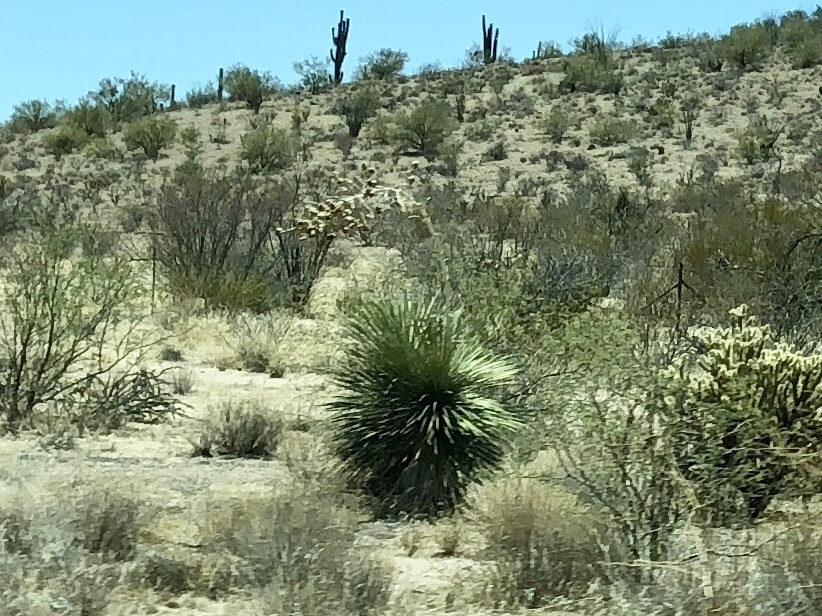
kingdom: Plantae
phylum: Tracheophyta
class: Liliopsida
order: Asparagales
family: Asparagaceae
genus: Yucca
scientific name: Yucca elata
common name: Palmella
